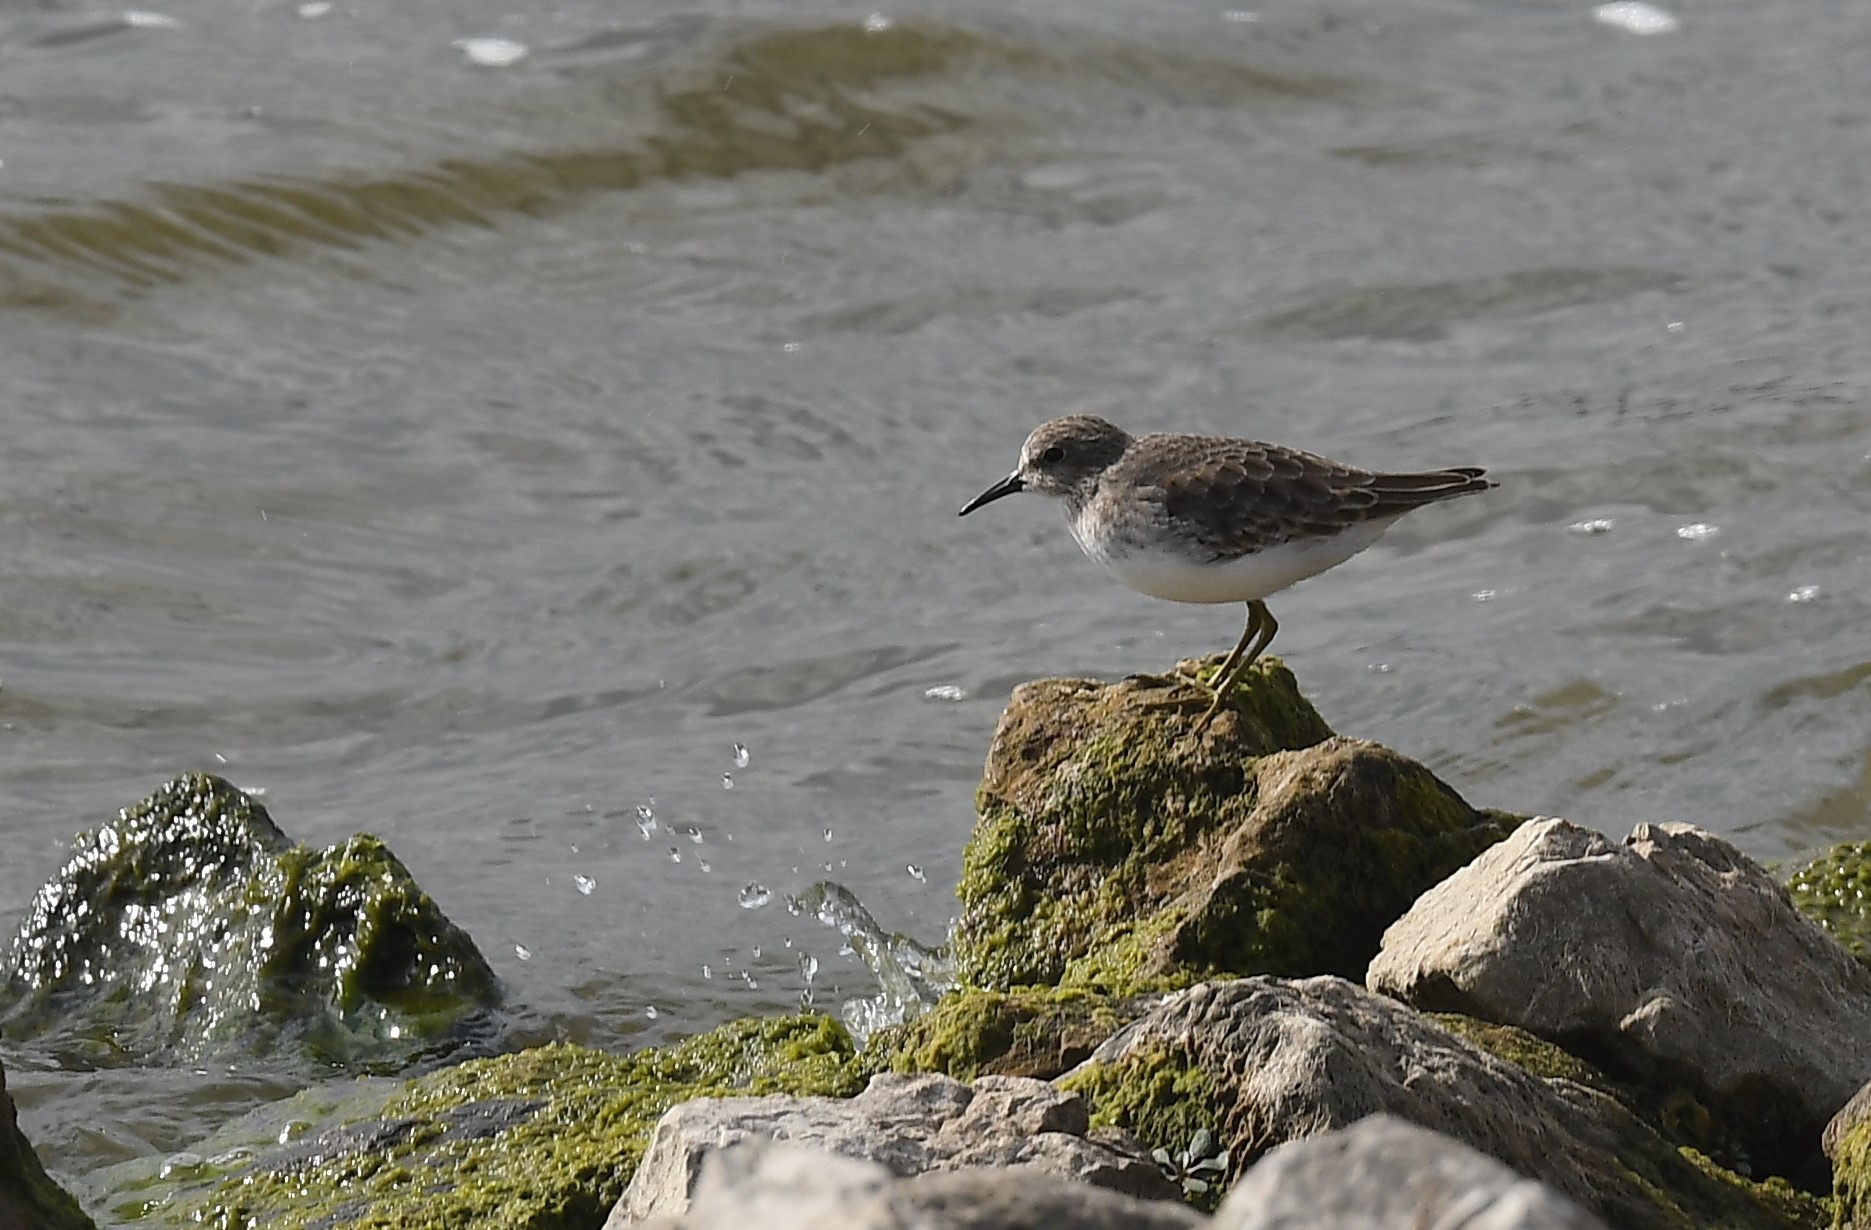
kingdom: Animalia
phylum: Chordata
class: Aves
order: Charadriiformes
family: Scolopacidae
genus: Calidris
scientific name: Calidris minutilla
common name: Least sandpiper
